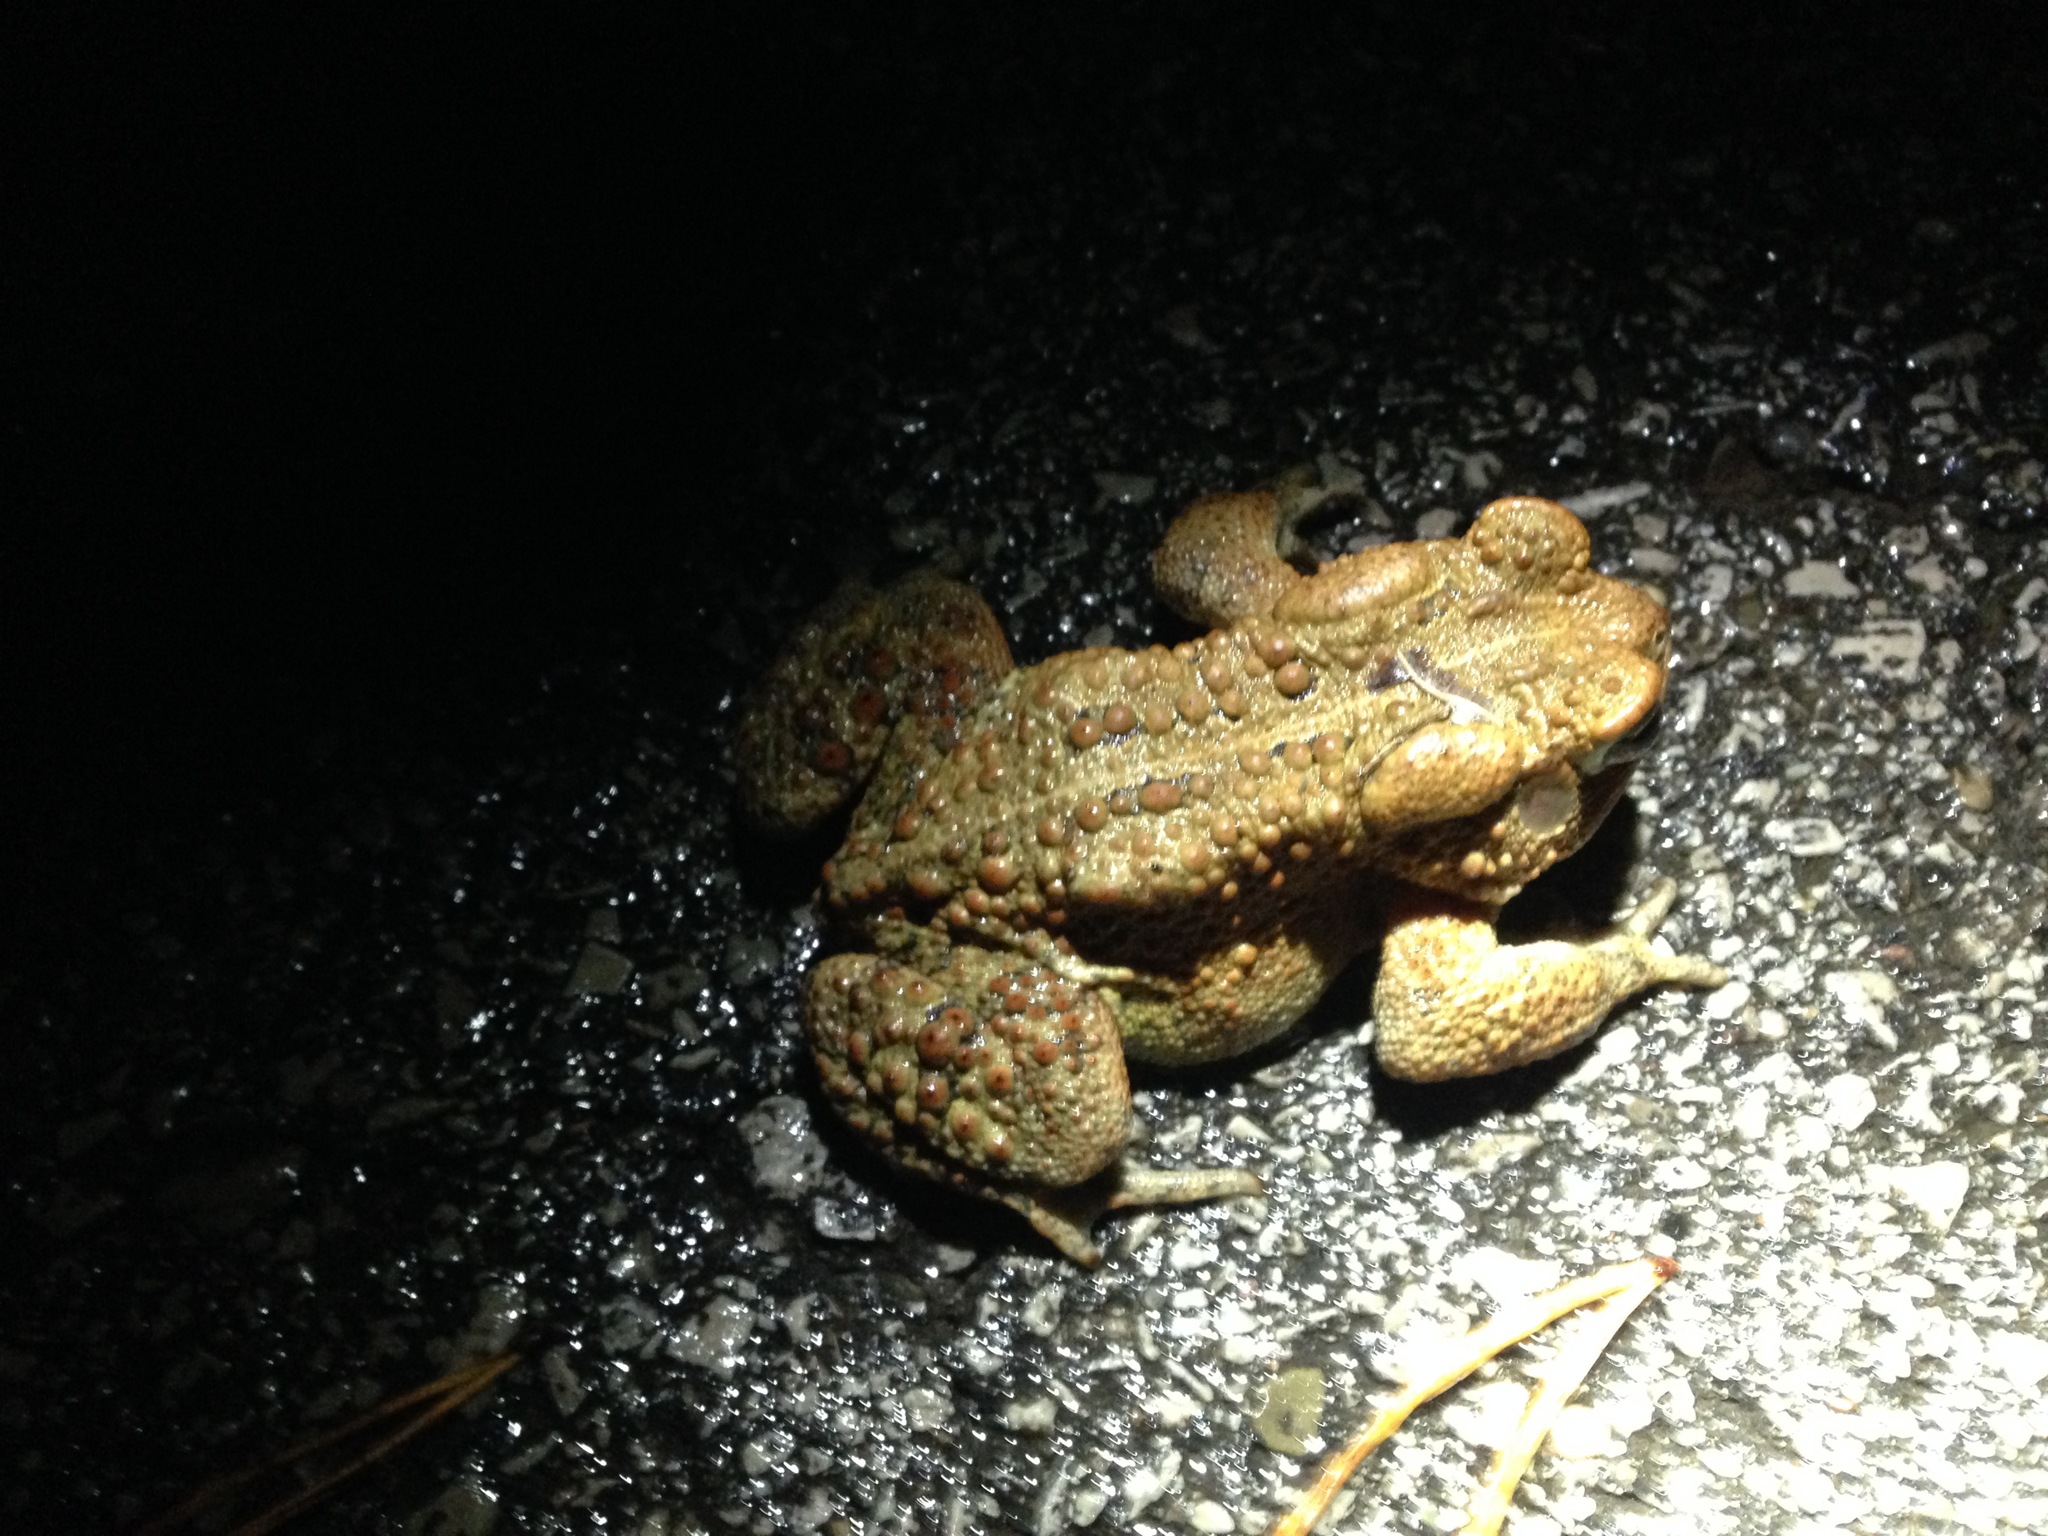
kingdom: Animalia
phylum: Chordata
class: Amphibia
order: Anura
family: Bufonidae
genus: Anaxyrus
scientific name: Anaxyrus americanus
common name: American toad
